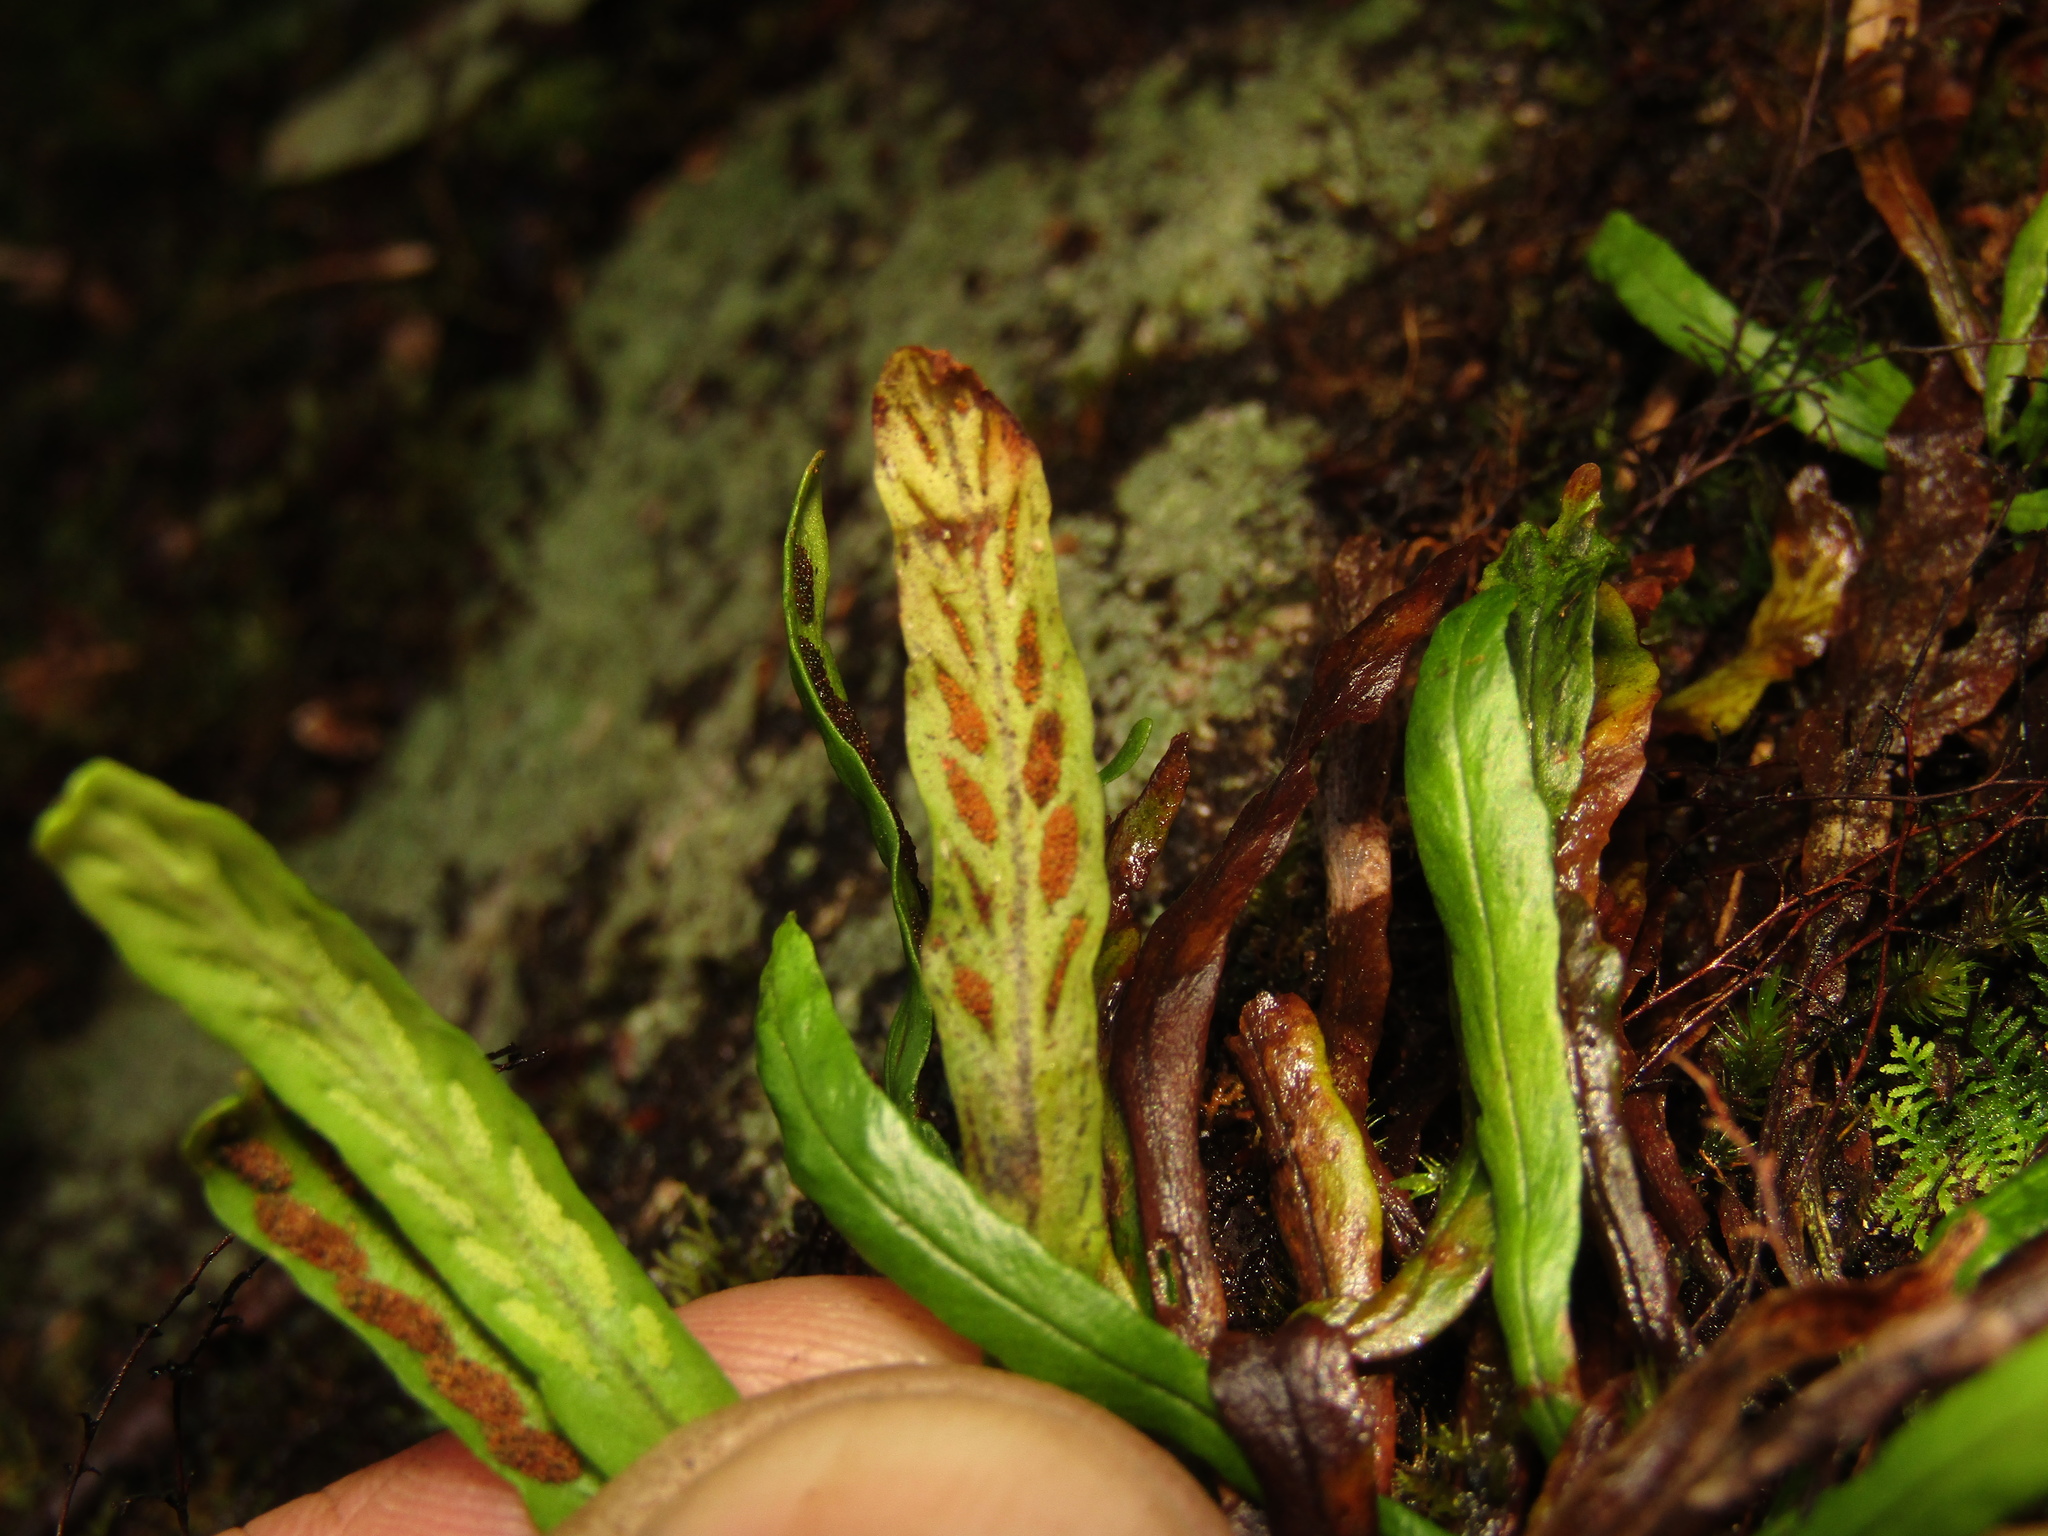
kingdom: Plantae
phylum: Tracheophyta
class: Polypodiopsida
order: Polypodiales
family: Polypodiaceae
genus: Notogrammitis
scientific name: Notogrammitis billardierei
